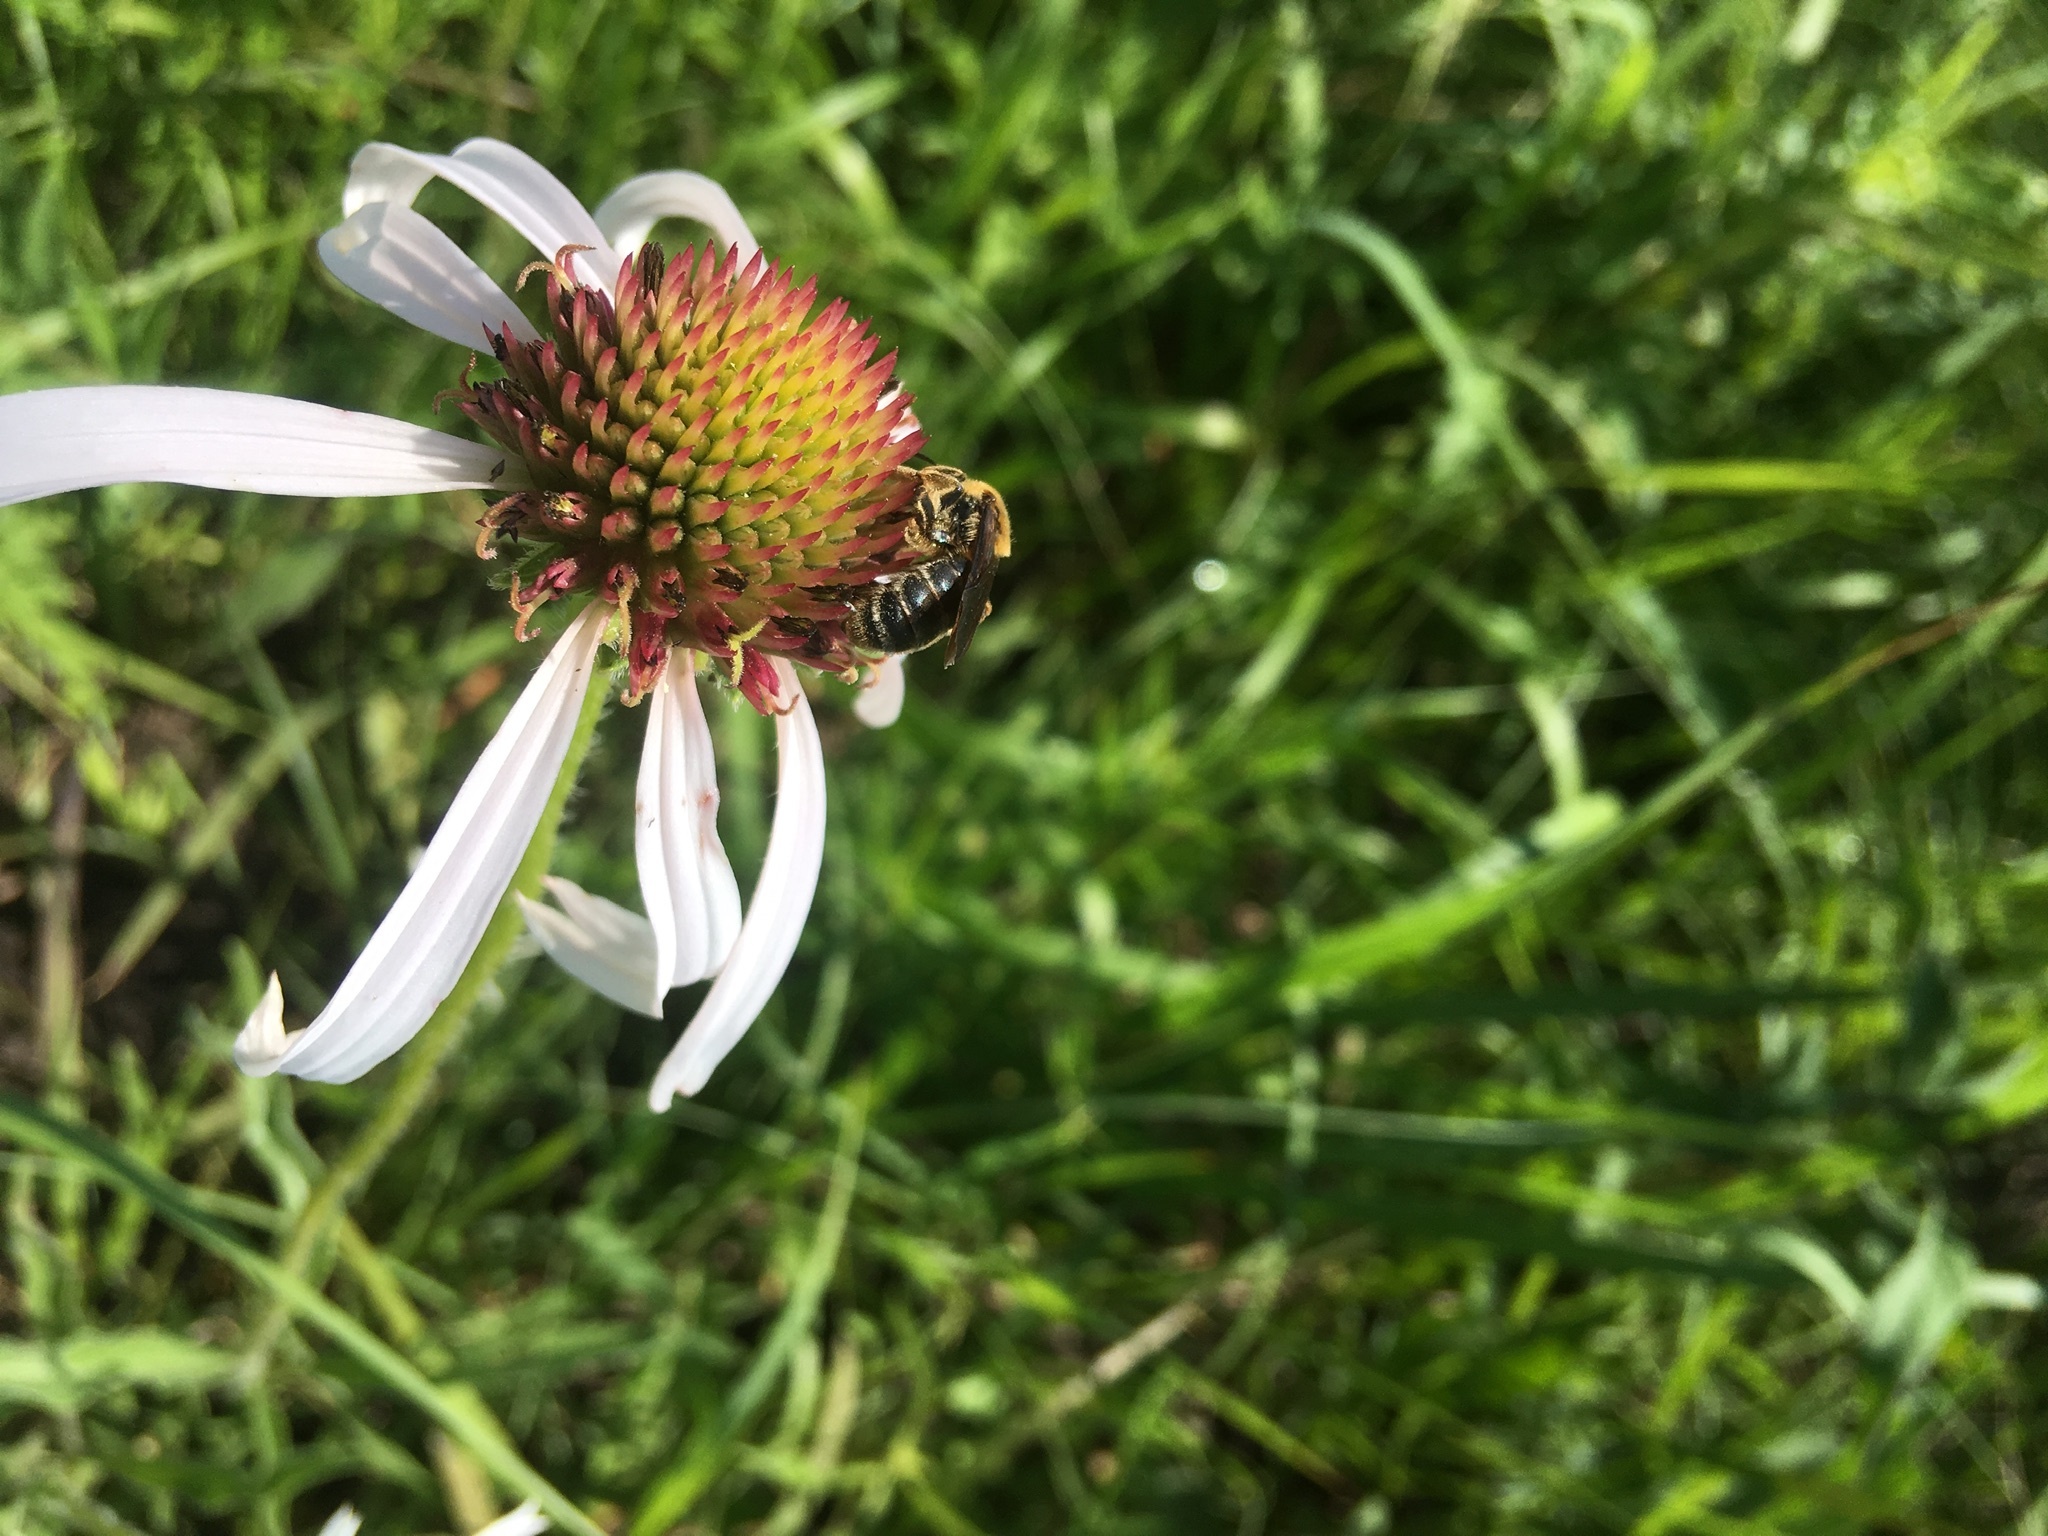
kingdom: Plantae
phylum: Tracheophyta
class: Magnoliopsida
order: Asterales
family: Asteraceae
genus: Echinacea
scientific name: Echinacea pallida
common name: Pale echinacea
